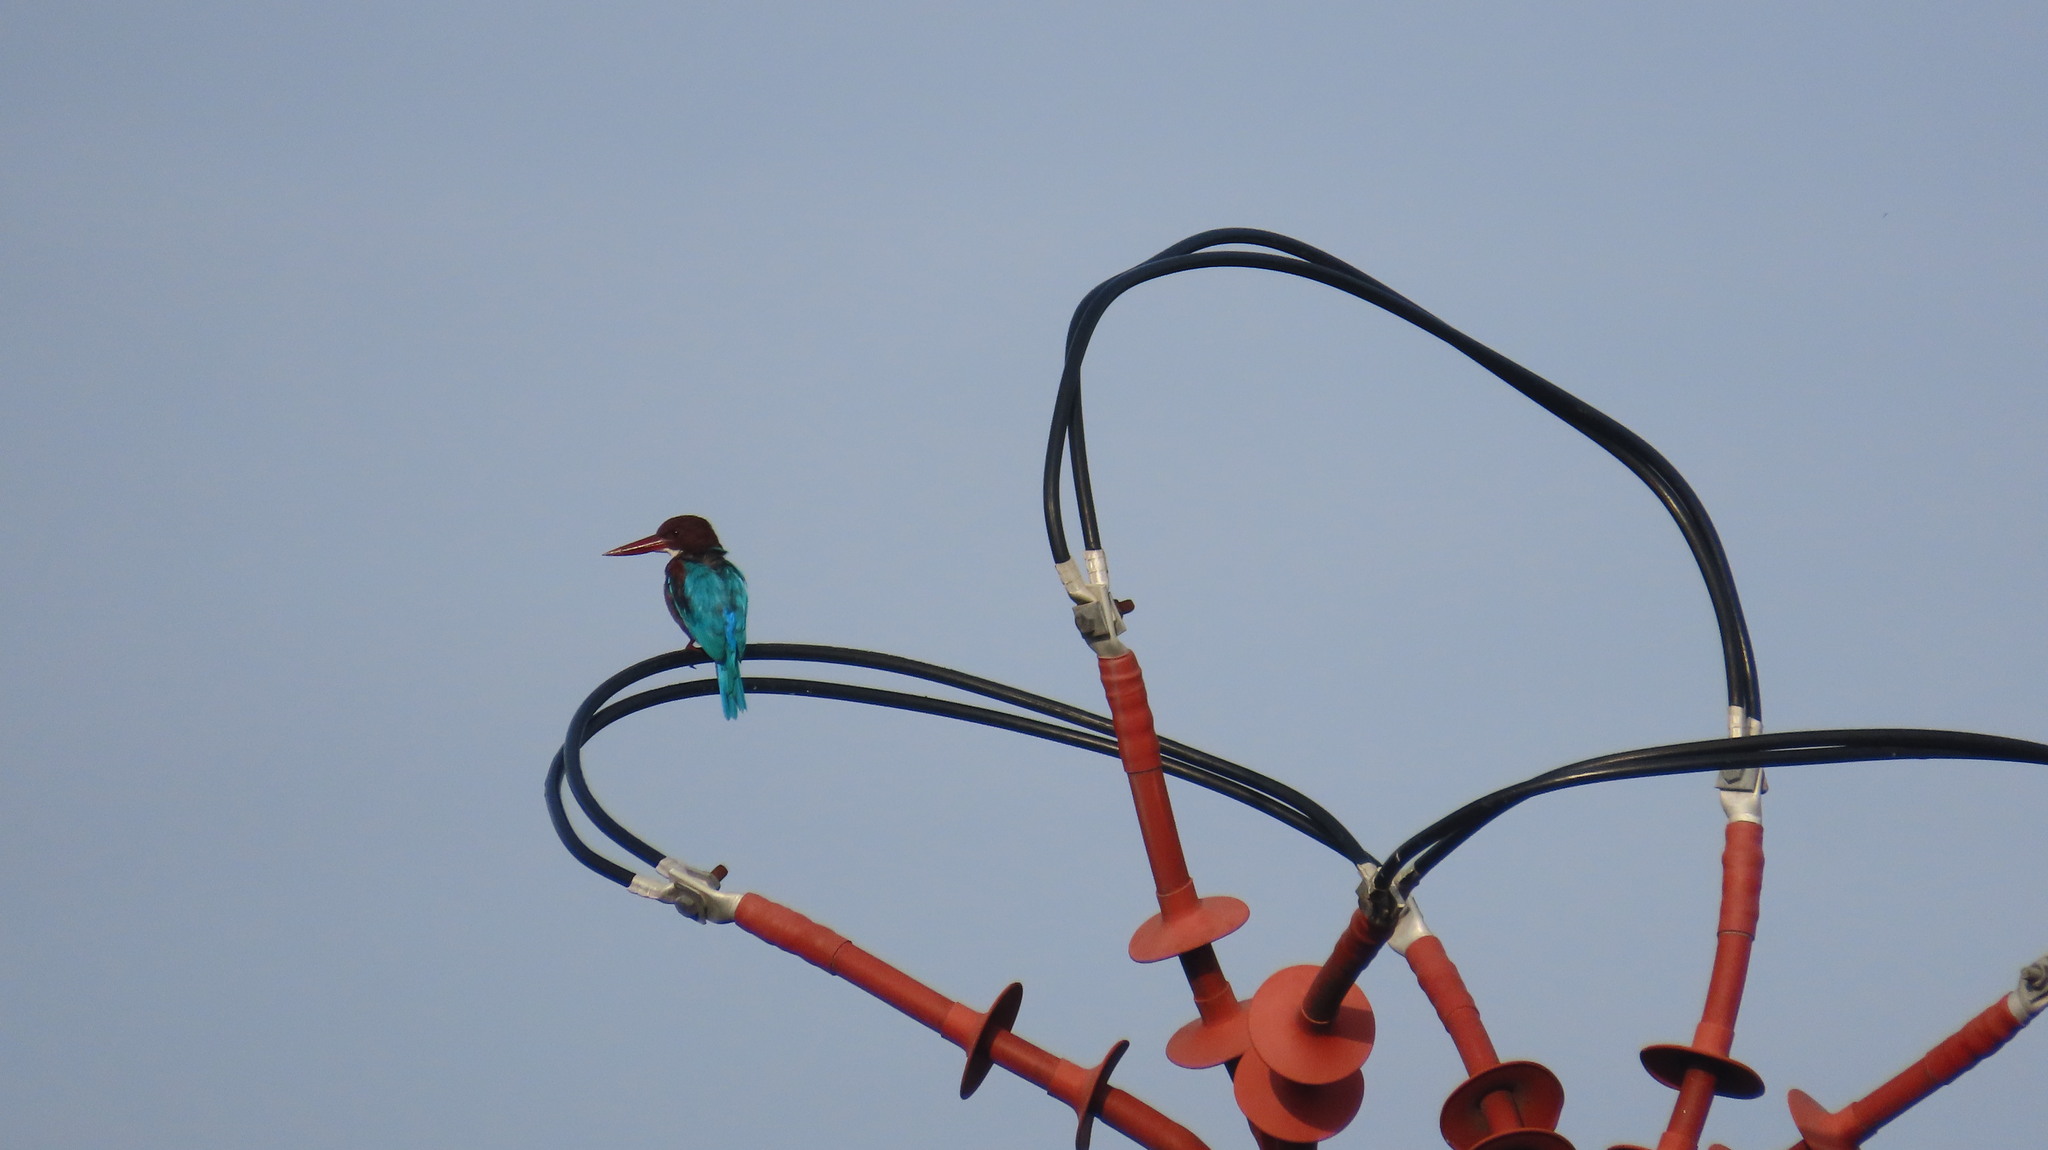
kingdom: Animalia
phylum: Chordata
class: Aves
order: Coraciiformes
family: Alcedinidae
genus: Halcyon
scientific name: Halcyon smyrnensis
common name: White-throated kingfisher
